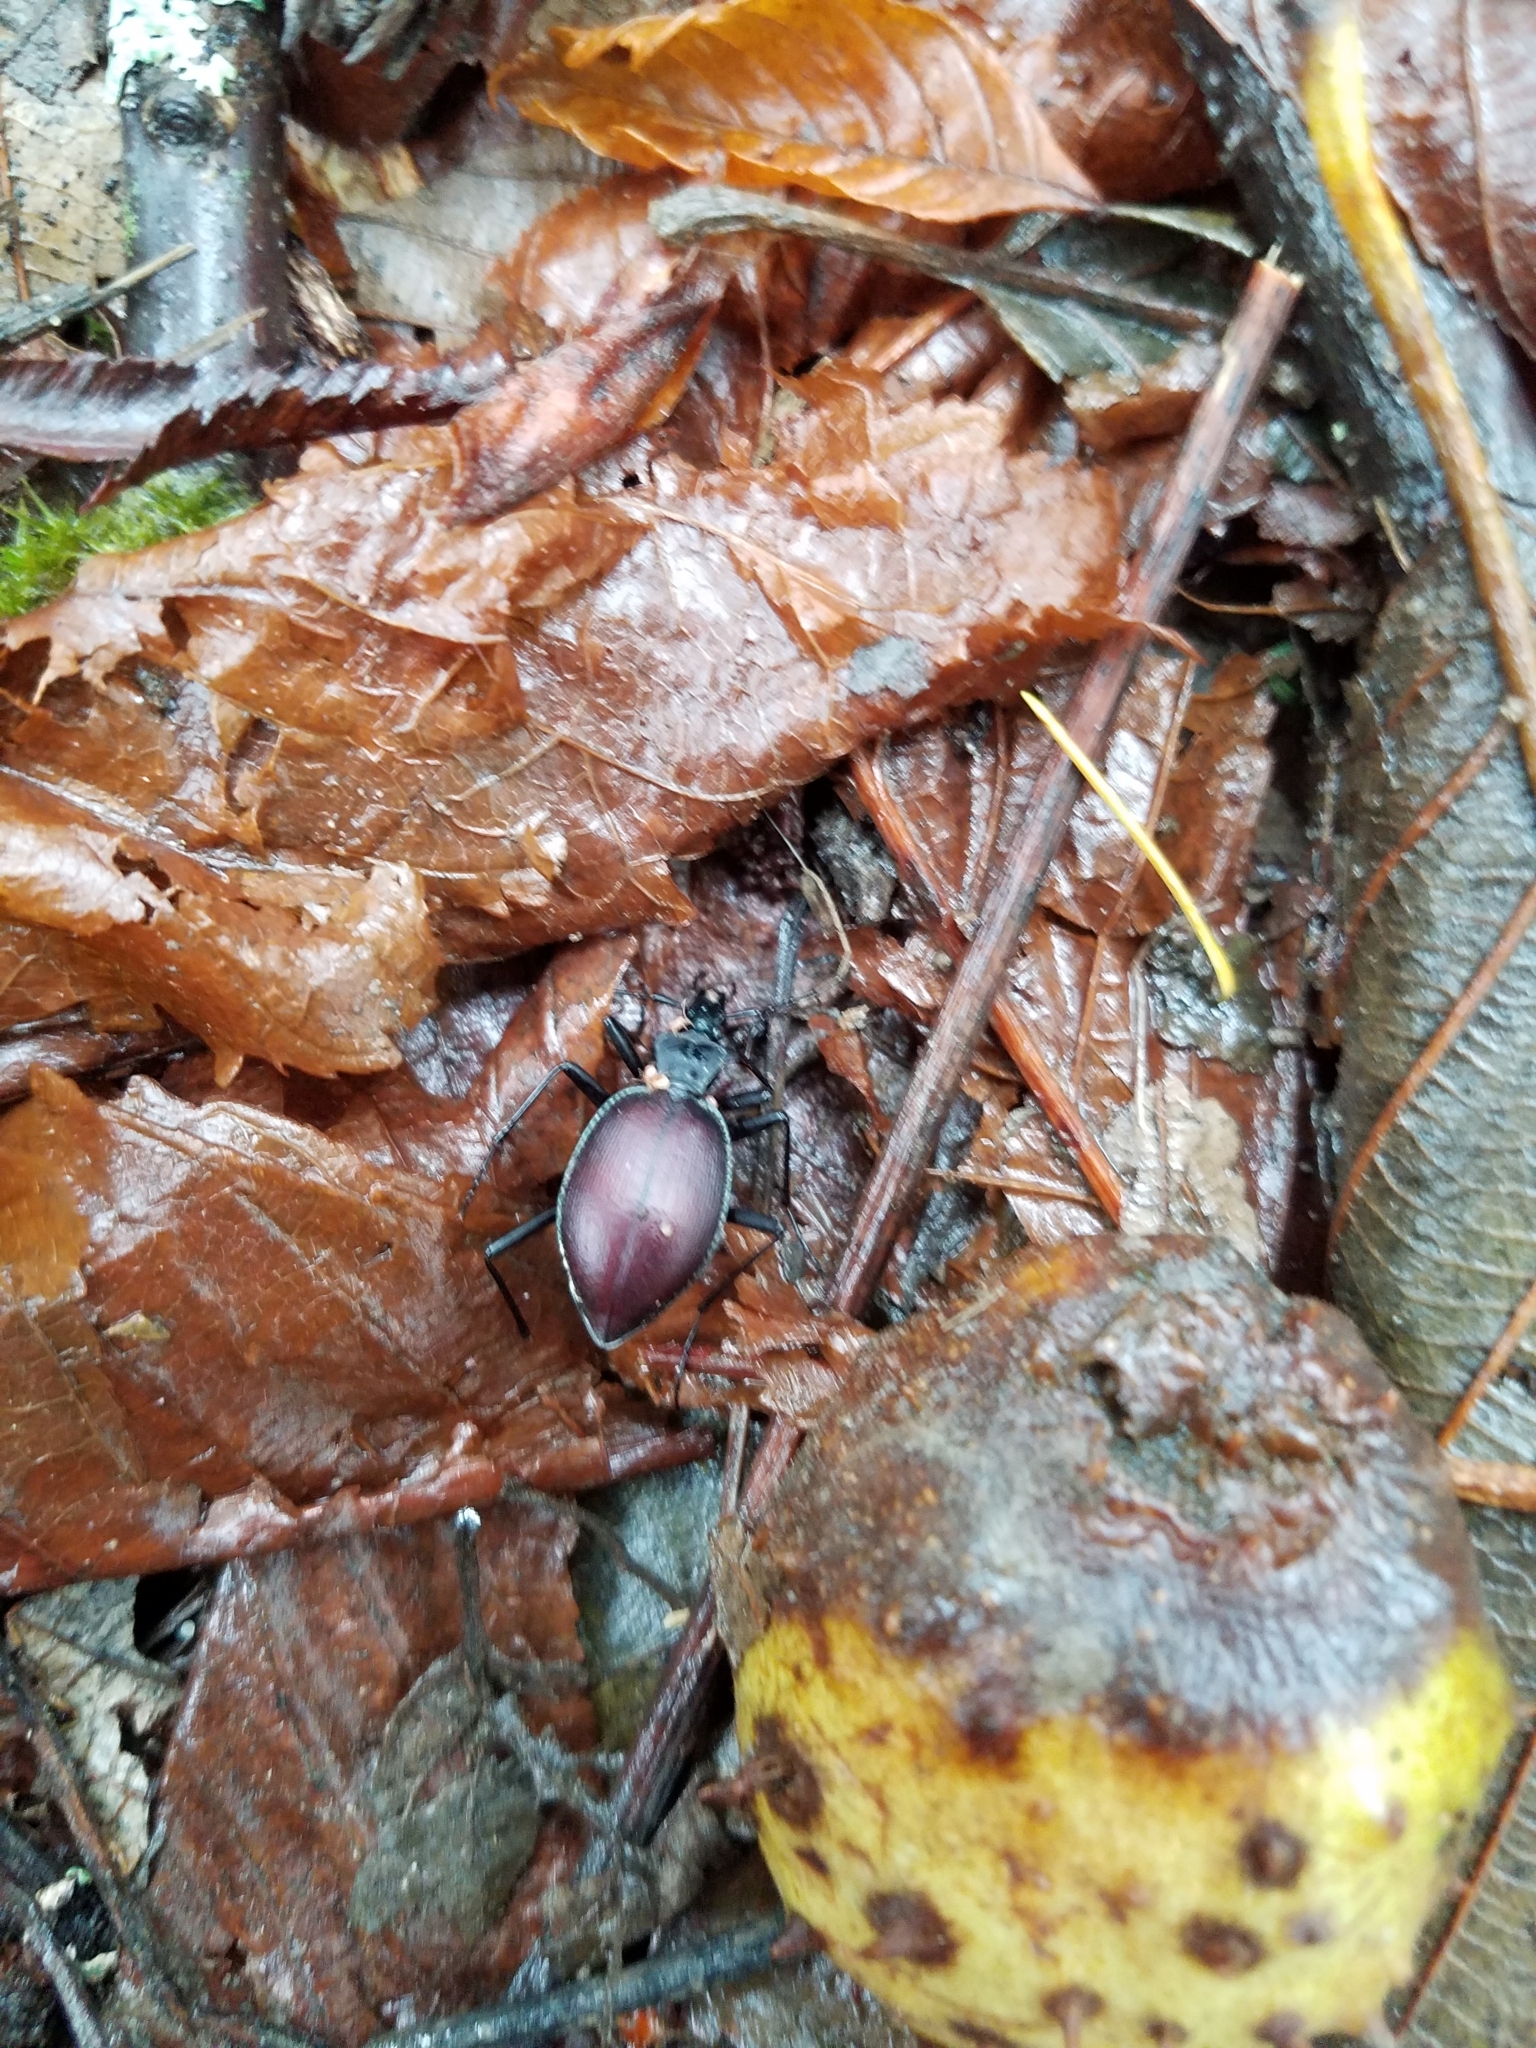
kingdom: Animalia
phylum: Arthropoda
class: Insecta
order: Coleoptera
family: Carabidae
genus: Scaphinotus
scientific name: Scaphinotus angusticollis
